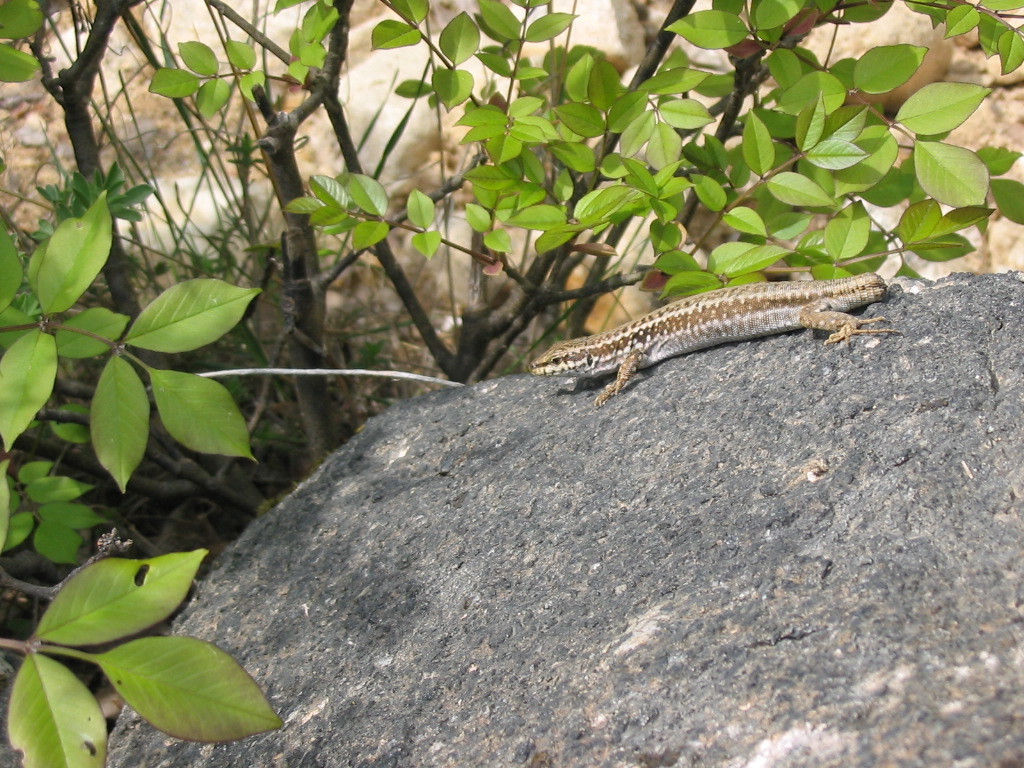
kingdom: Animalia
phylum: Chordata
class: Squamata
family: Lacertidae
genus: Podarcis
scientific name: Podarcis erhardii
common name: Erhard's wall lizard
